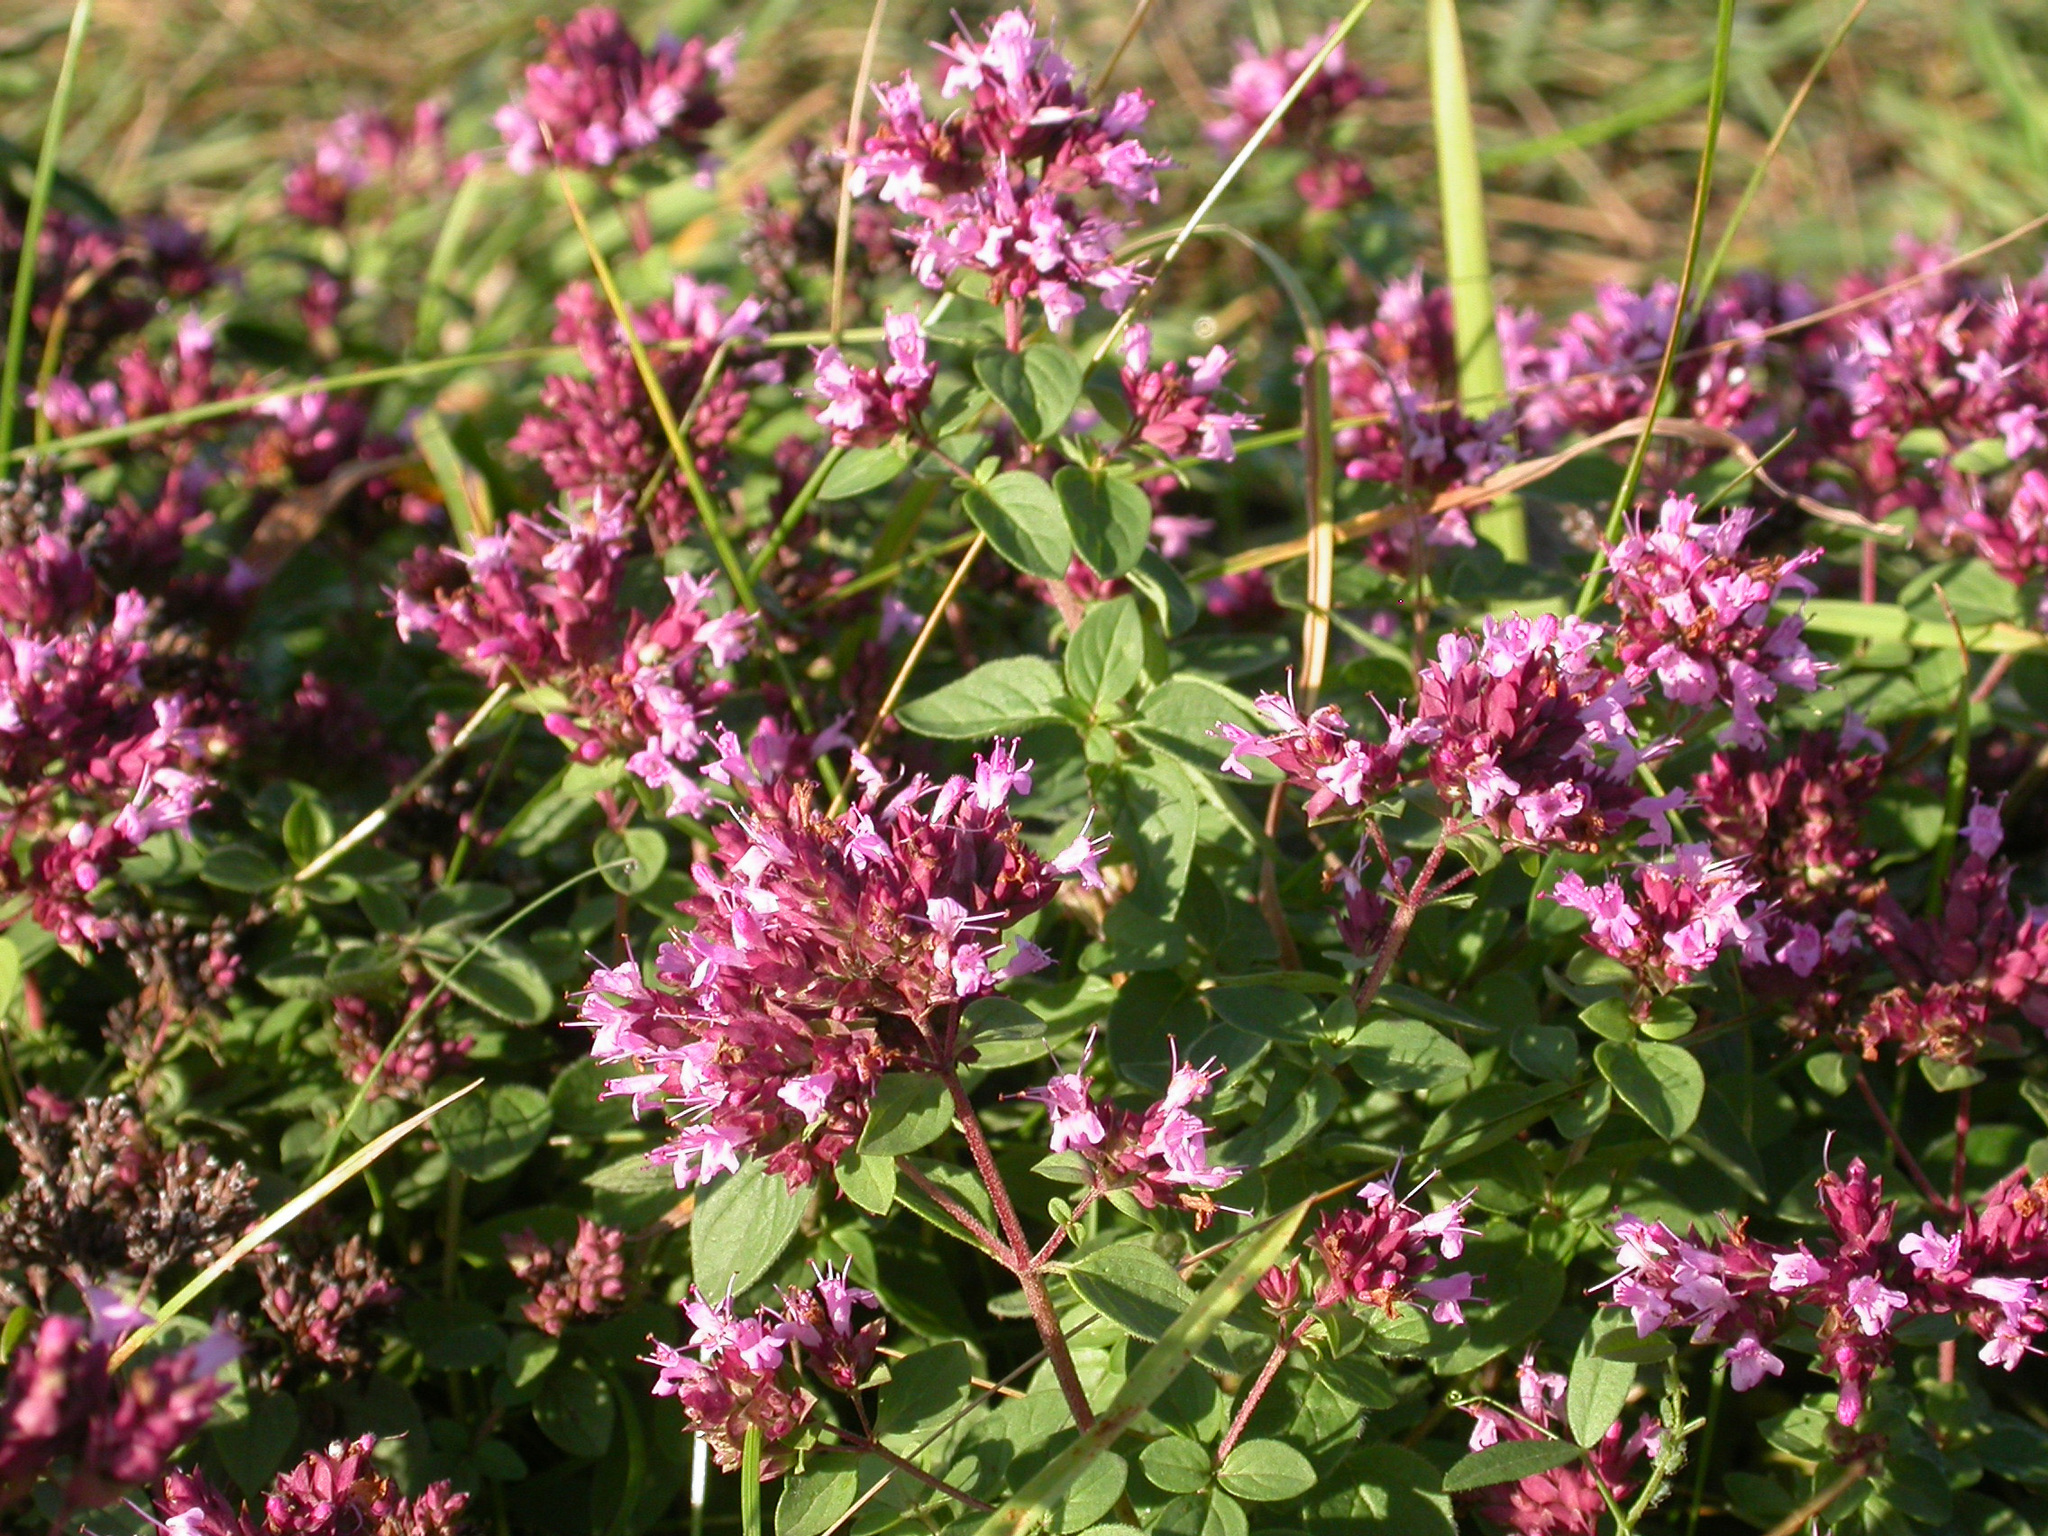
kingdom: Plantae
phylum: Tracheophyta
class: Magnoliopsida
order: Lamiales
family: Lamiaceae
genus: Origanum
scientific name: Origanum vulgare
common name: Wild marjoram
